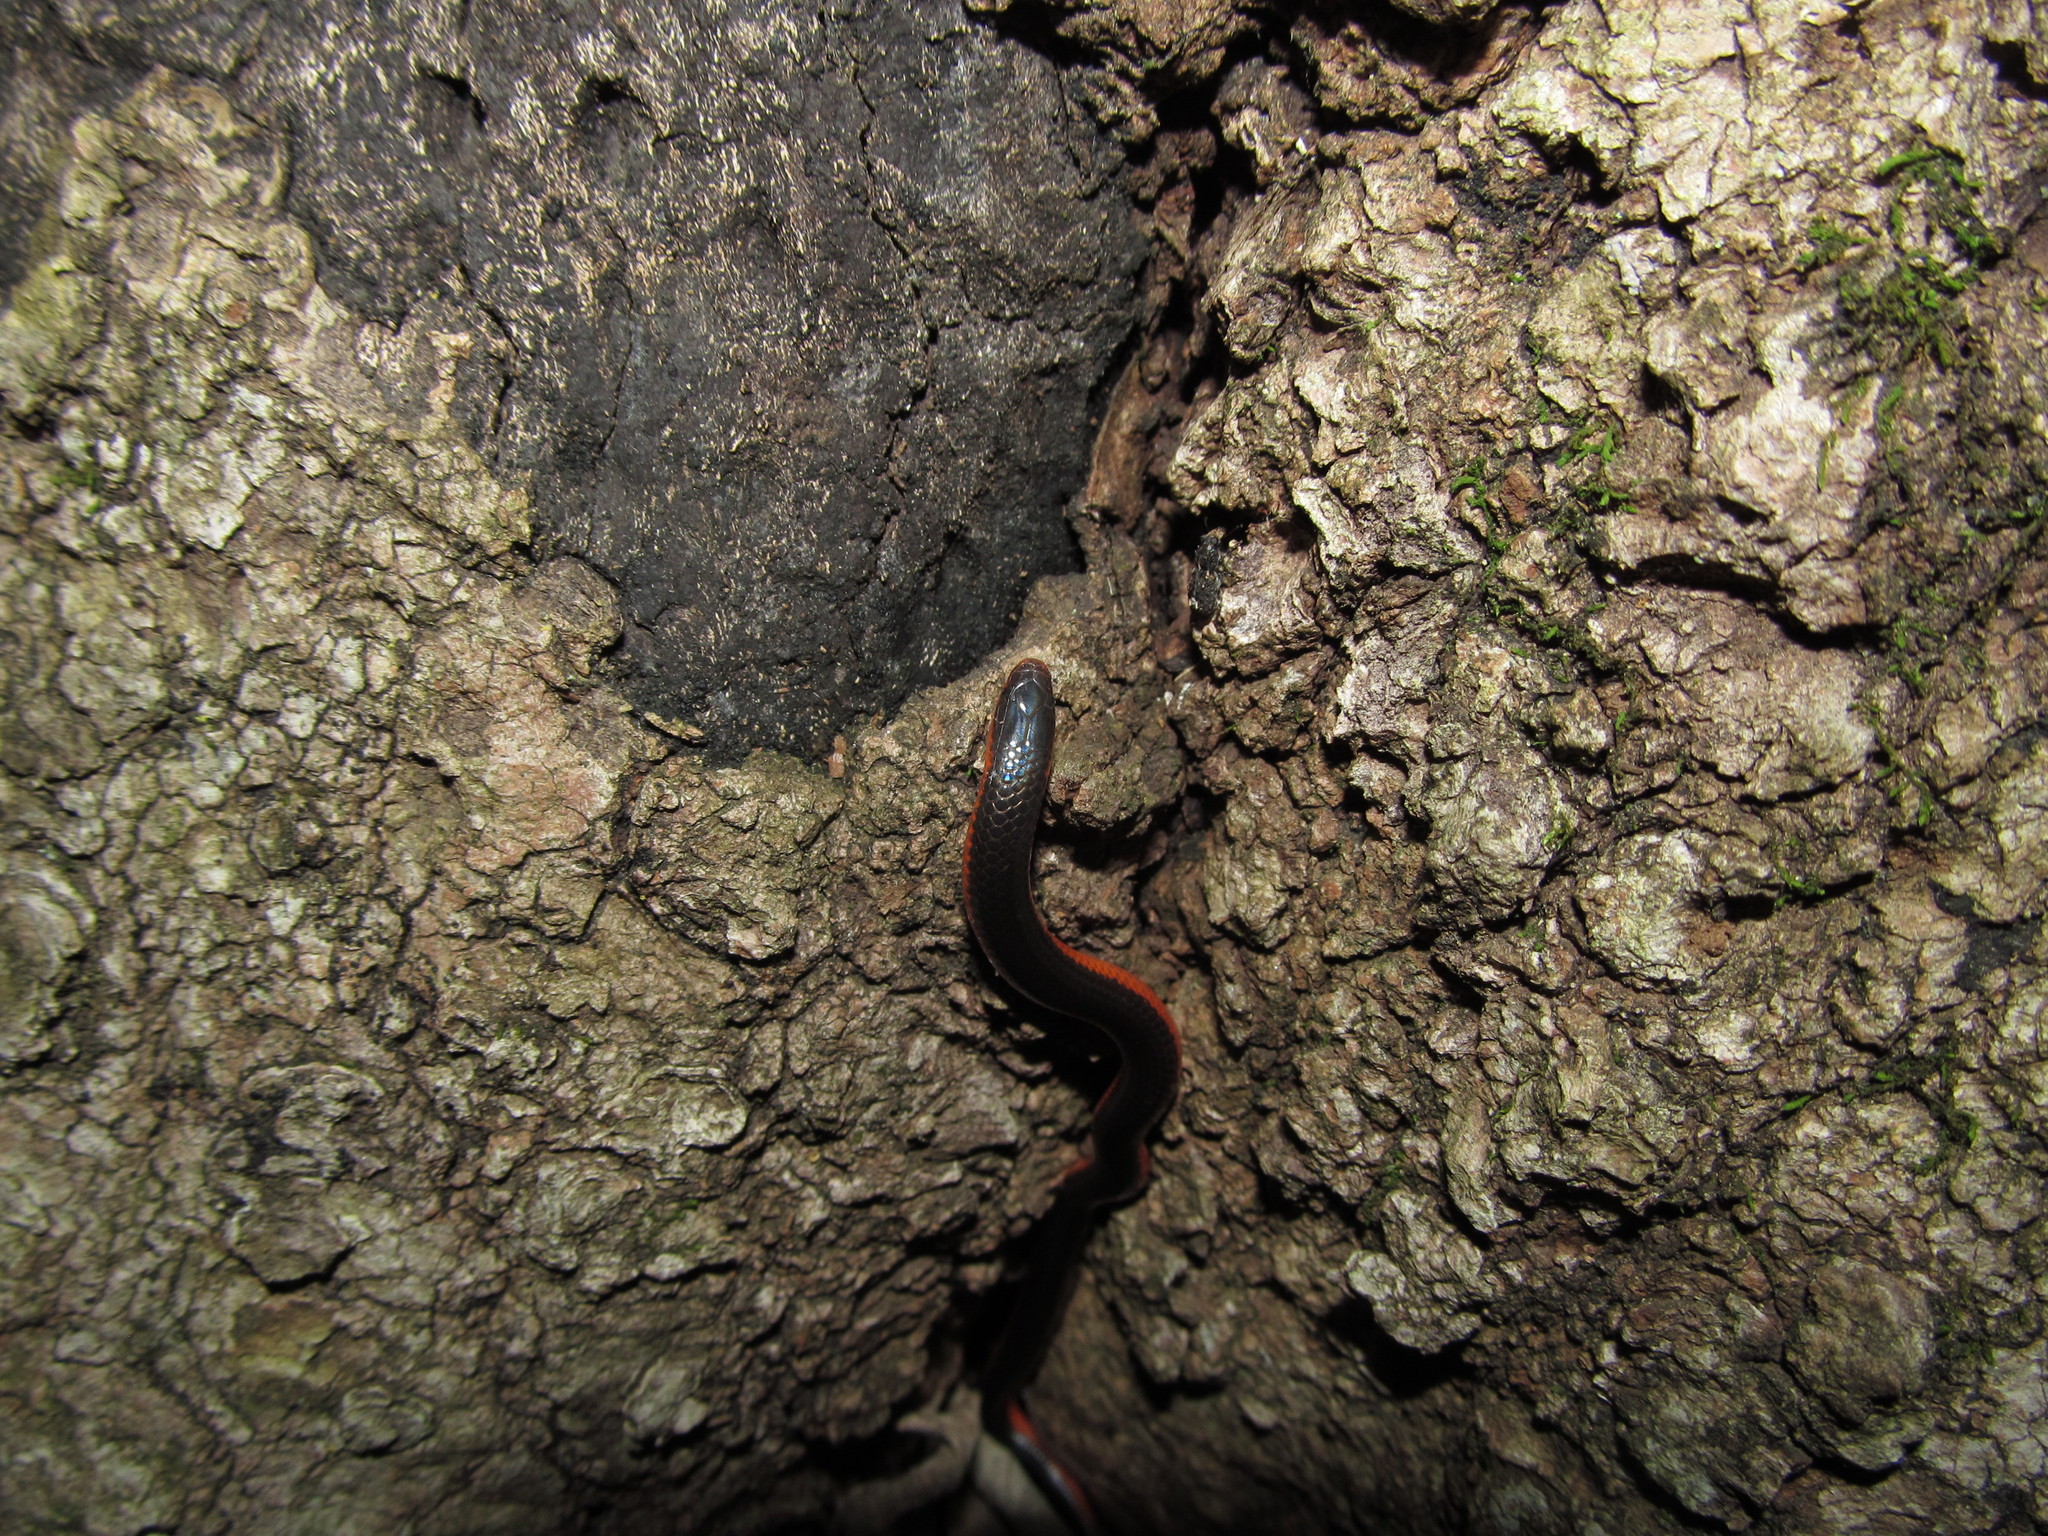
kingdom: Animalia
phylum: Chordata
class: Squamata
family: Colubridae
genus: Carphophis
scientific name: Carphophis vermis
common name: Western worm snake
